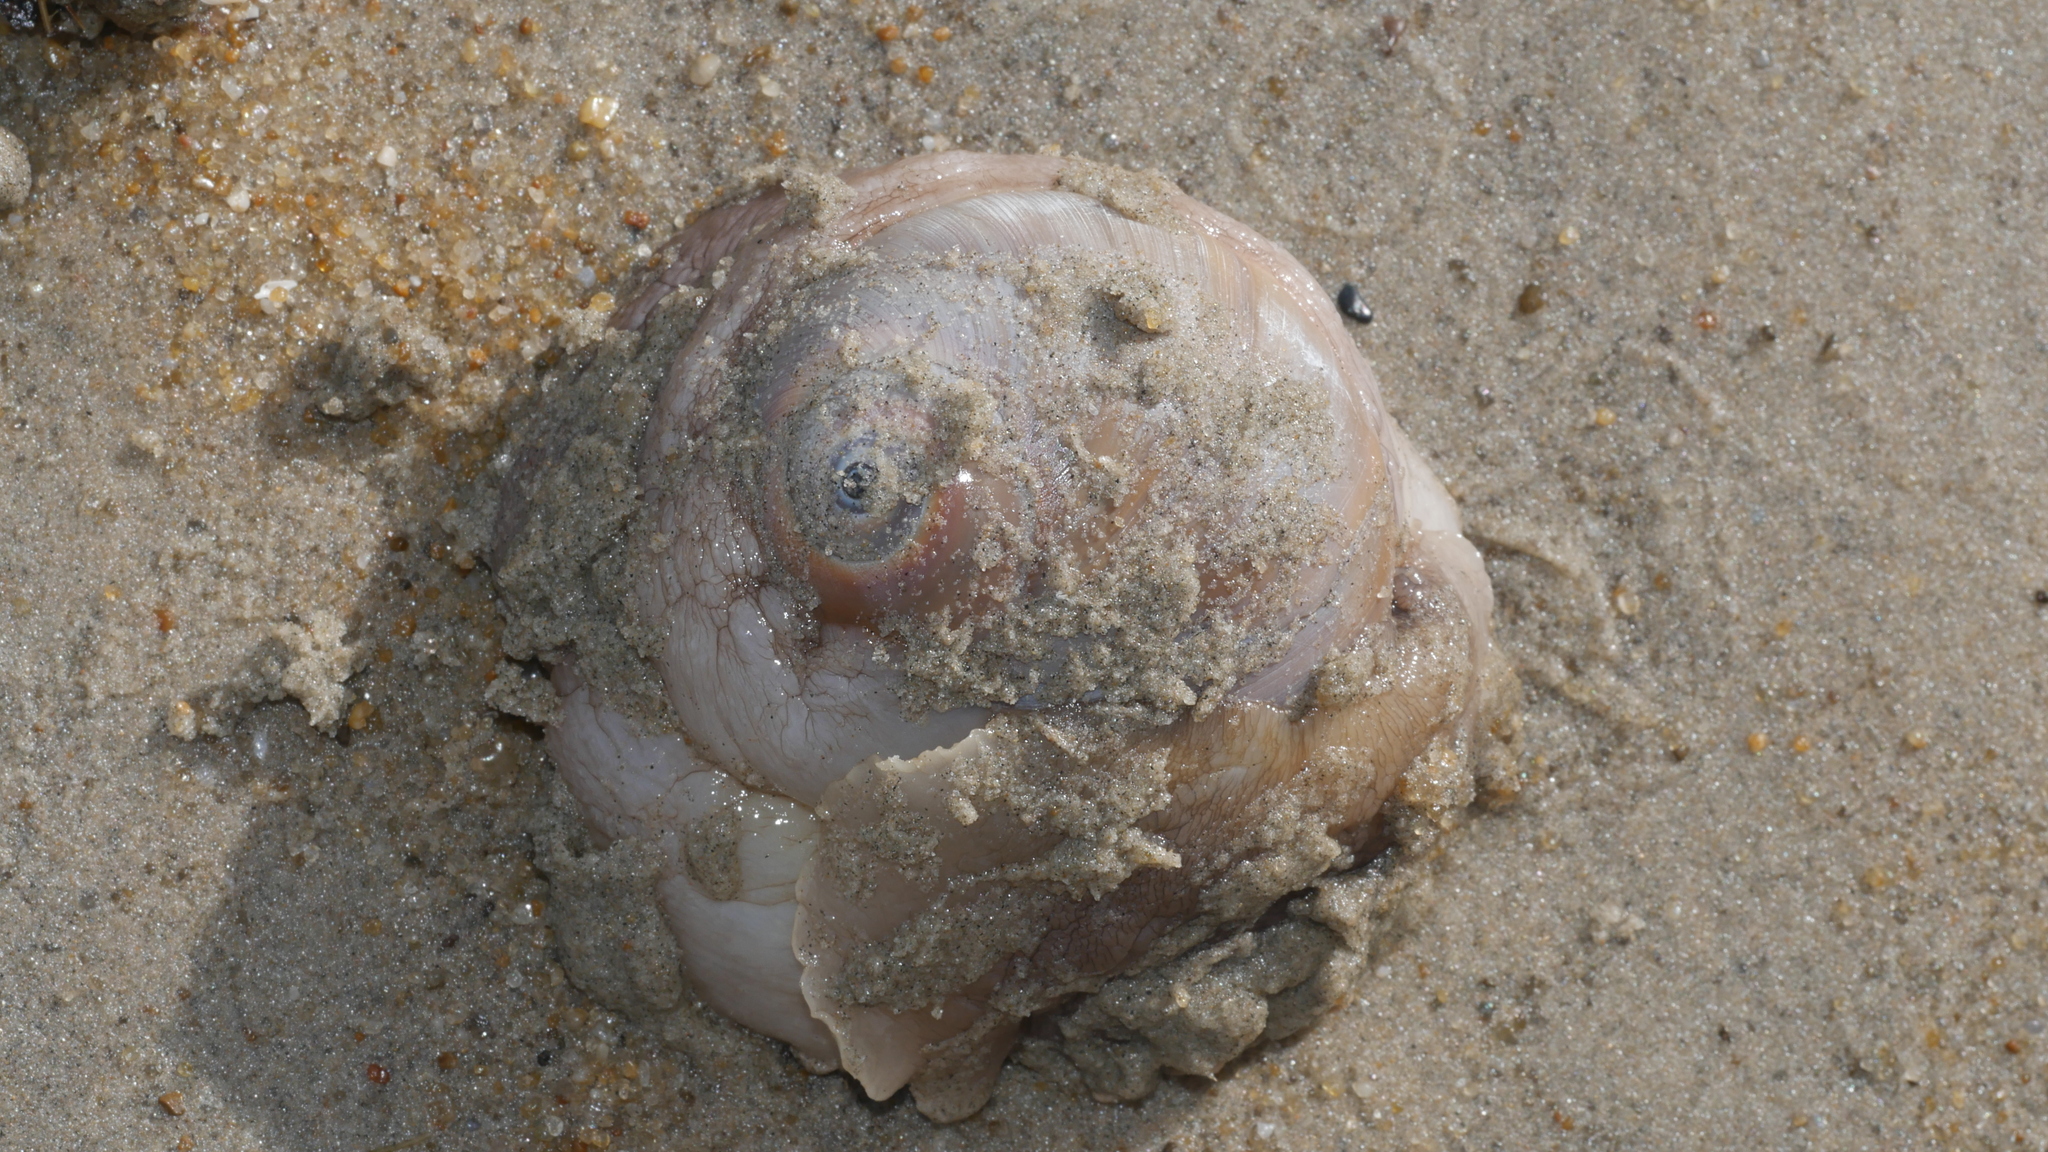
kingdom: Animalia
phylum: Mollusca
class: Gastropoda
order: Littorinimorpha
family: Naticidae
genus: Neverita
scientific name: Neverita duplicata
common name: Lobed moonsnail
